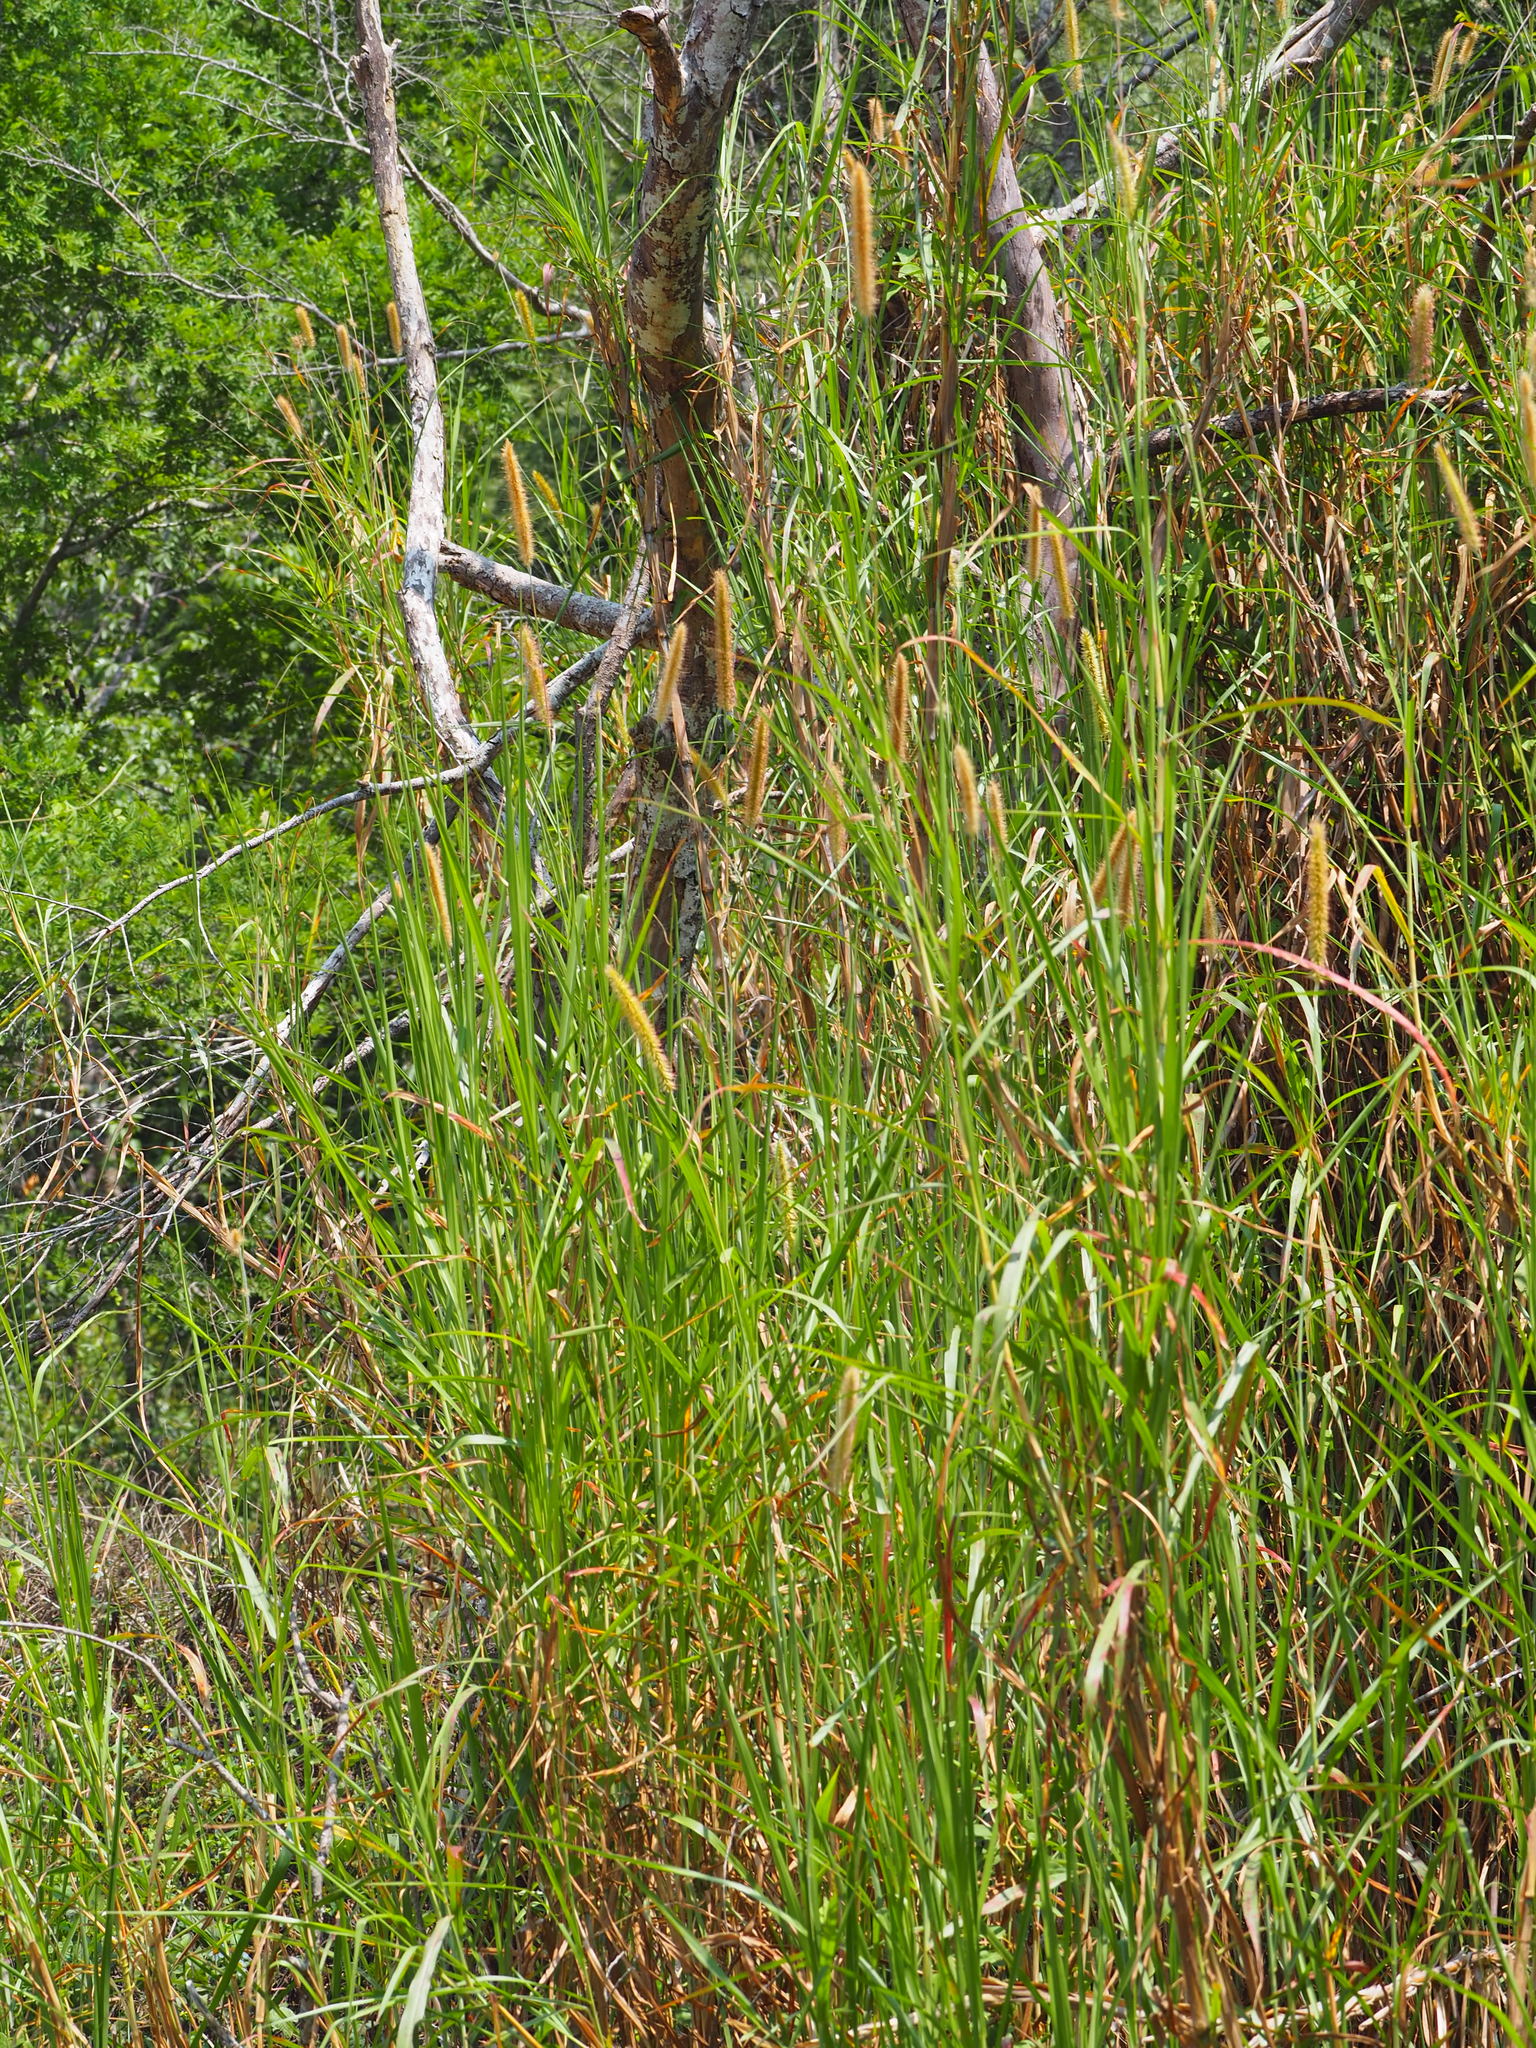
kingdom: Plantae
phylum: Tracheophyta
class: Liliopsida
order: Poales
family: Poaceae
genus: Cenchrus
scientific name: Cenchrus purpureus
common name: Elephant grass
